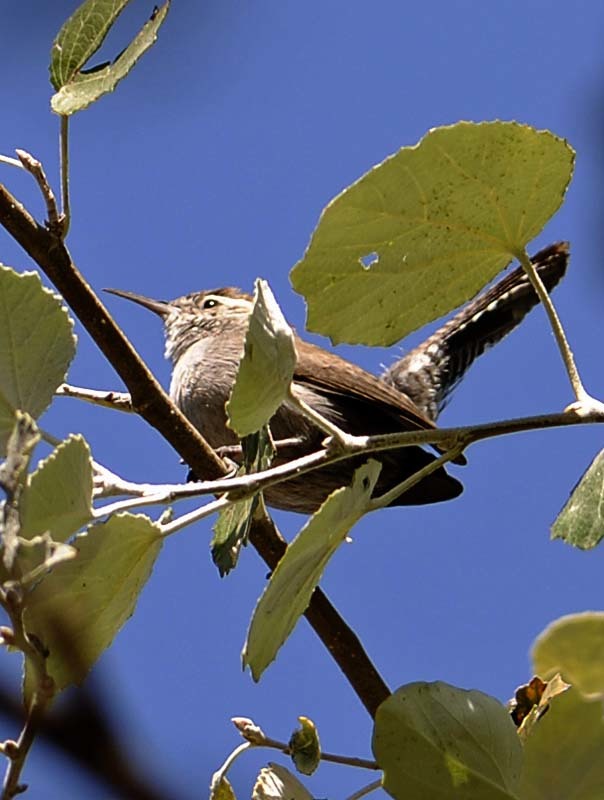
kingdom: Animalia
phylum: Chordata
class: Aves
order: Passeriformes
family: Troglodytidae
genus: Thryomanes
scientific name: Thryomanes bewickii
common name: Bewick's wren
